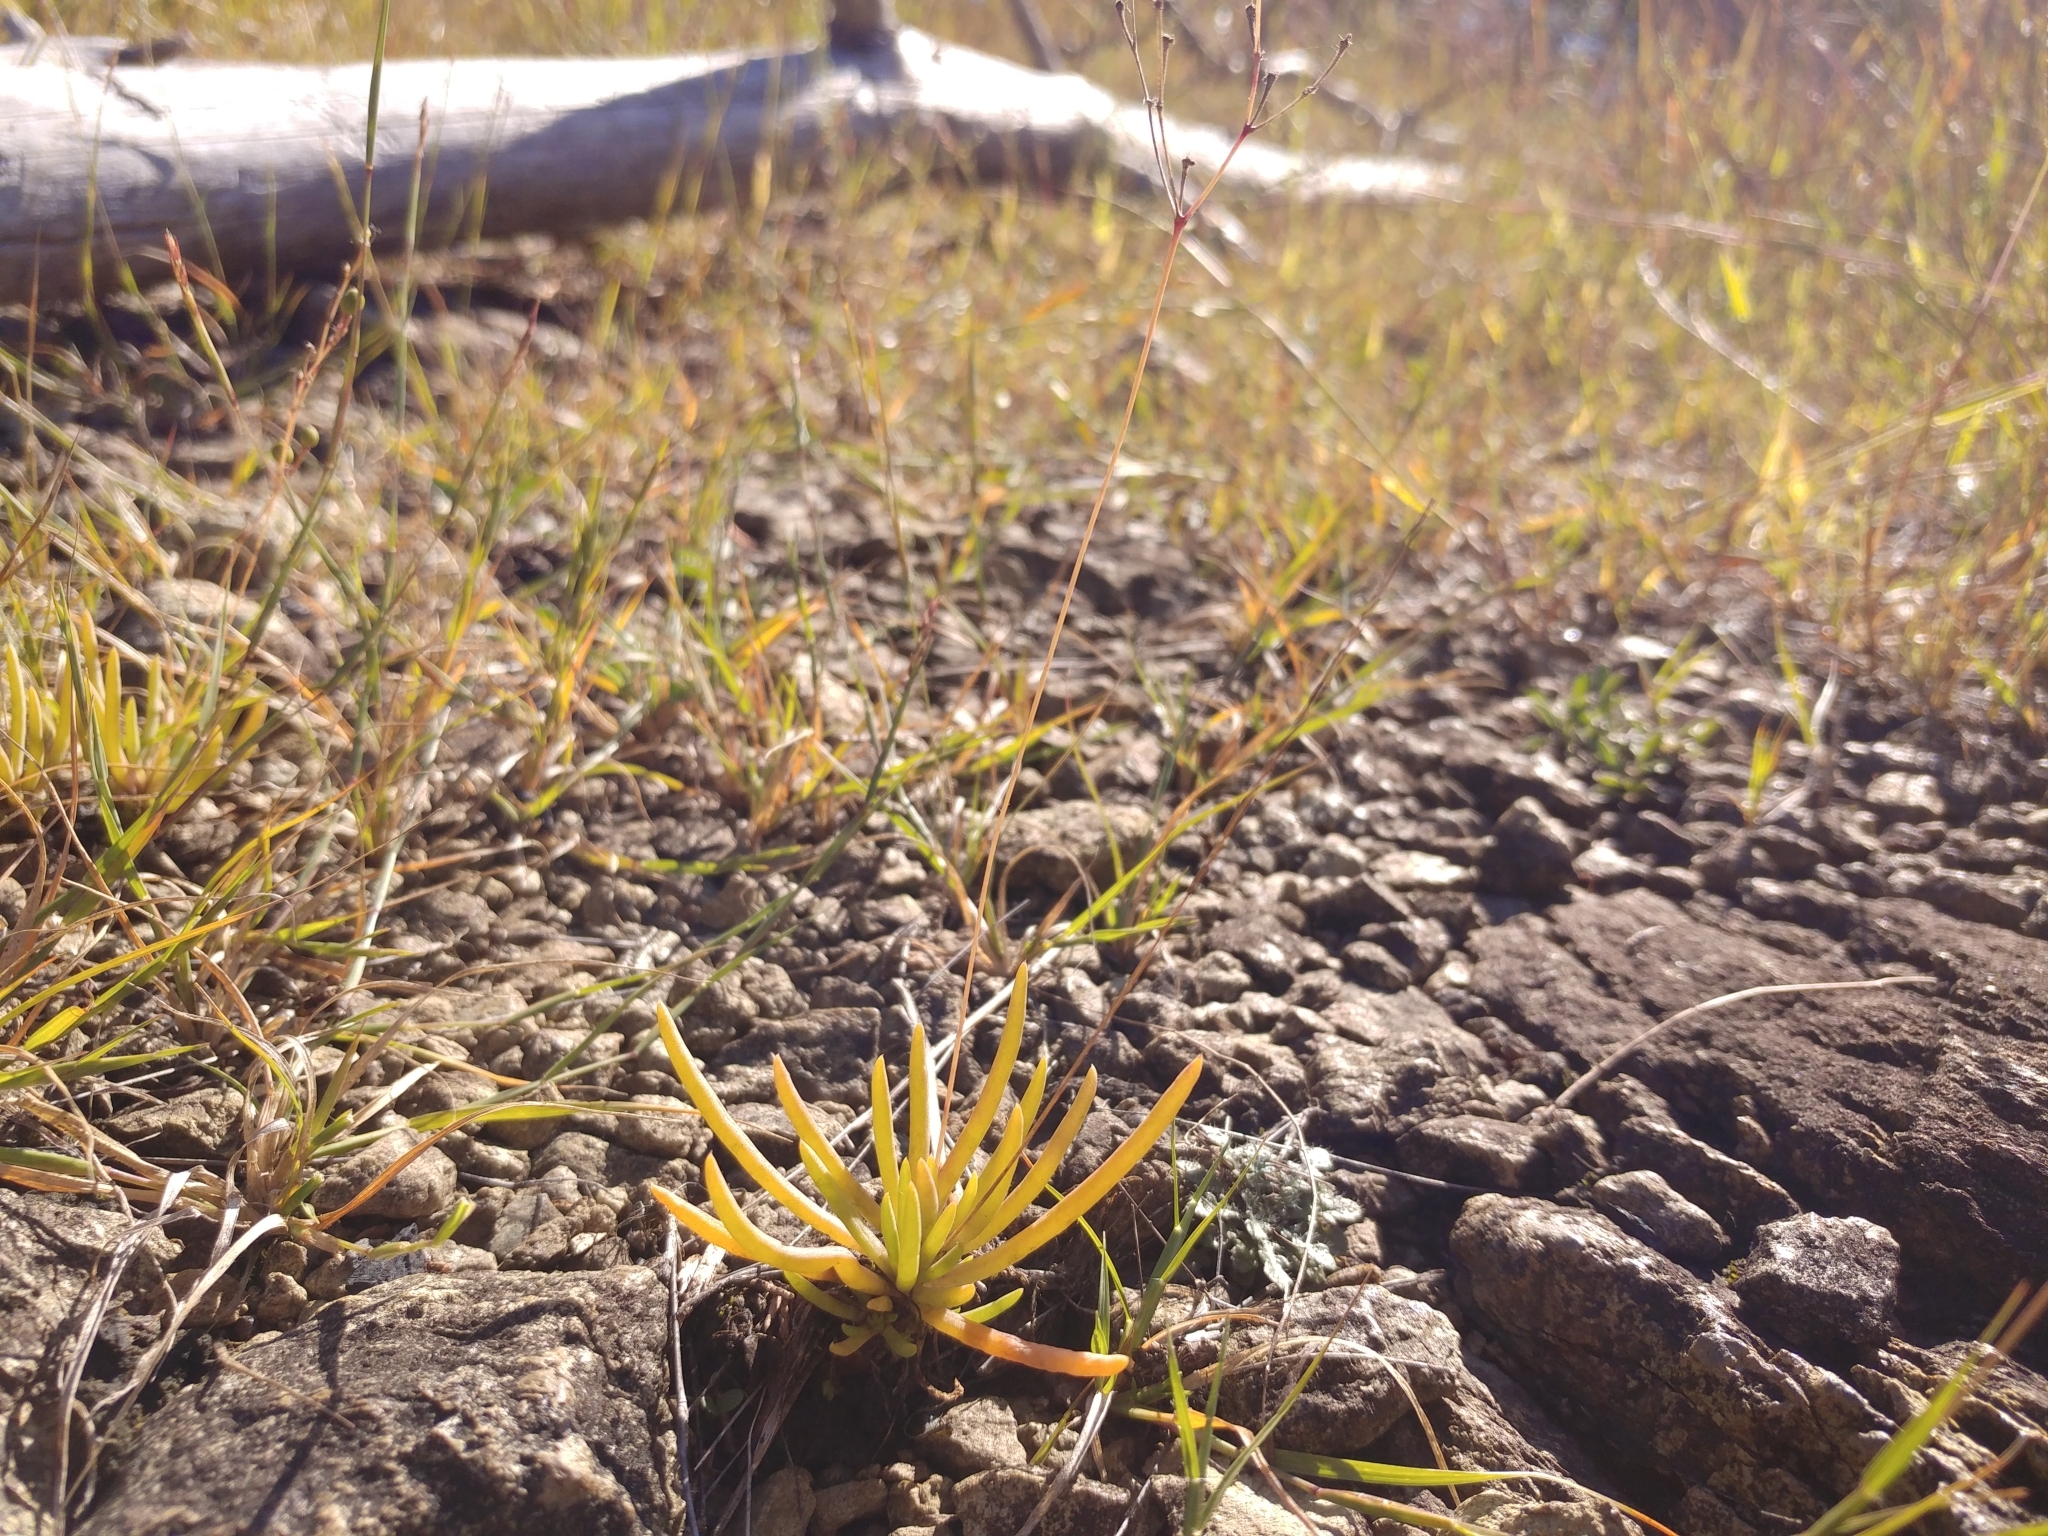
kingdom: Plantae
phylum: Tracheophyta
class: Magnoliopsida
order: Caryophyllales
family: Montiaceae
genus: Phemeranthus
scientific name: Phemeranthus teretifolius
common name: Quill fameflower
